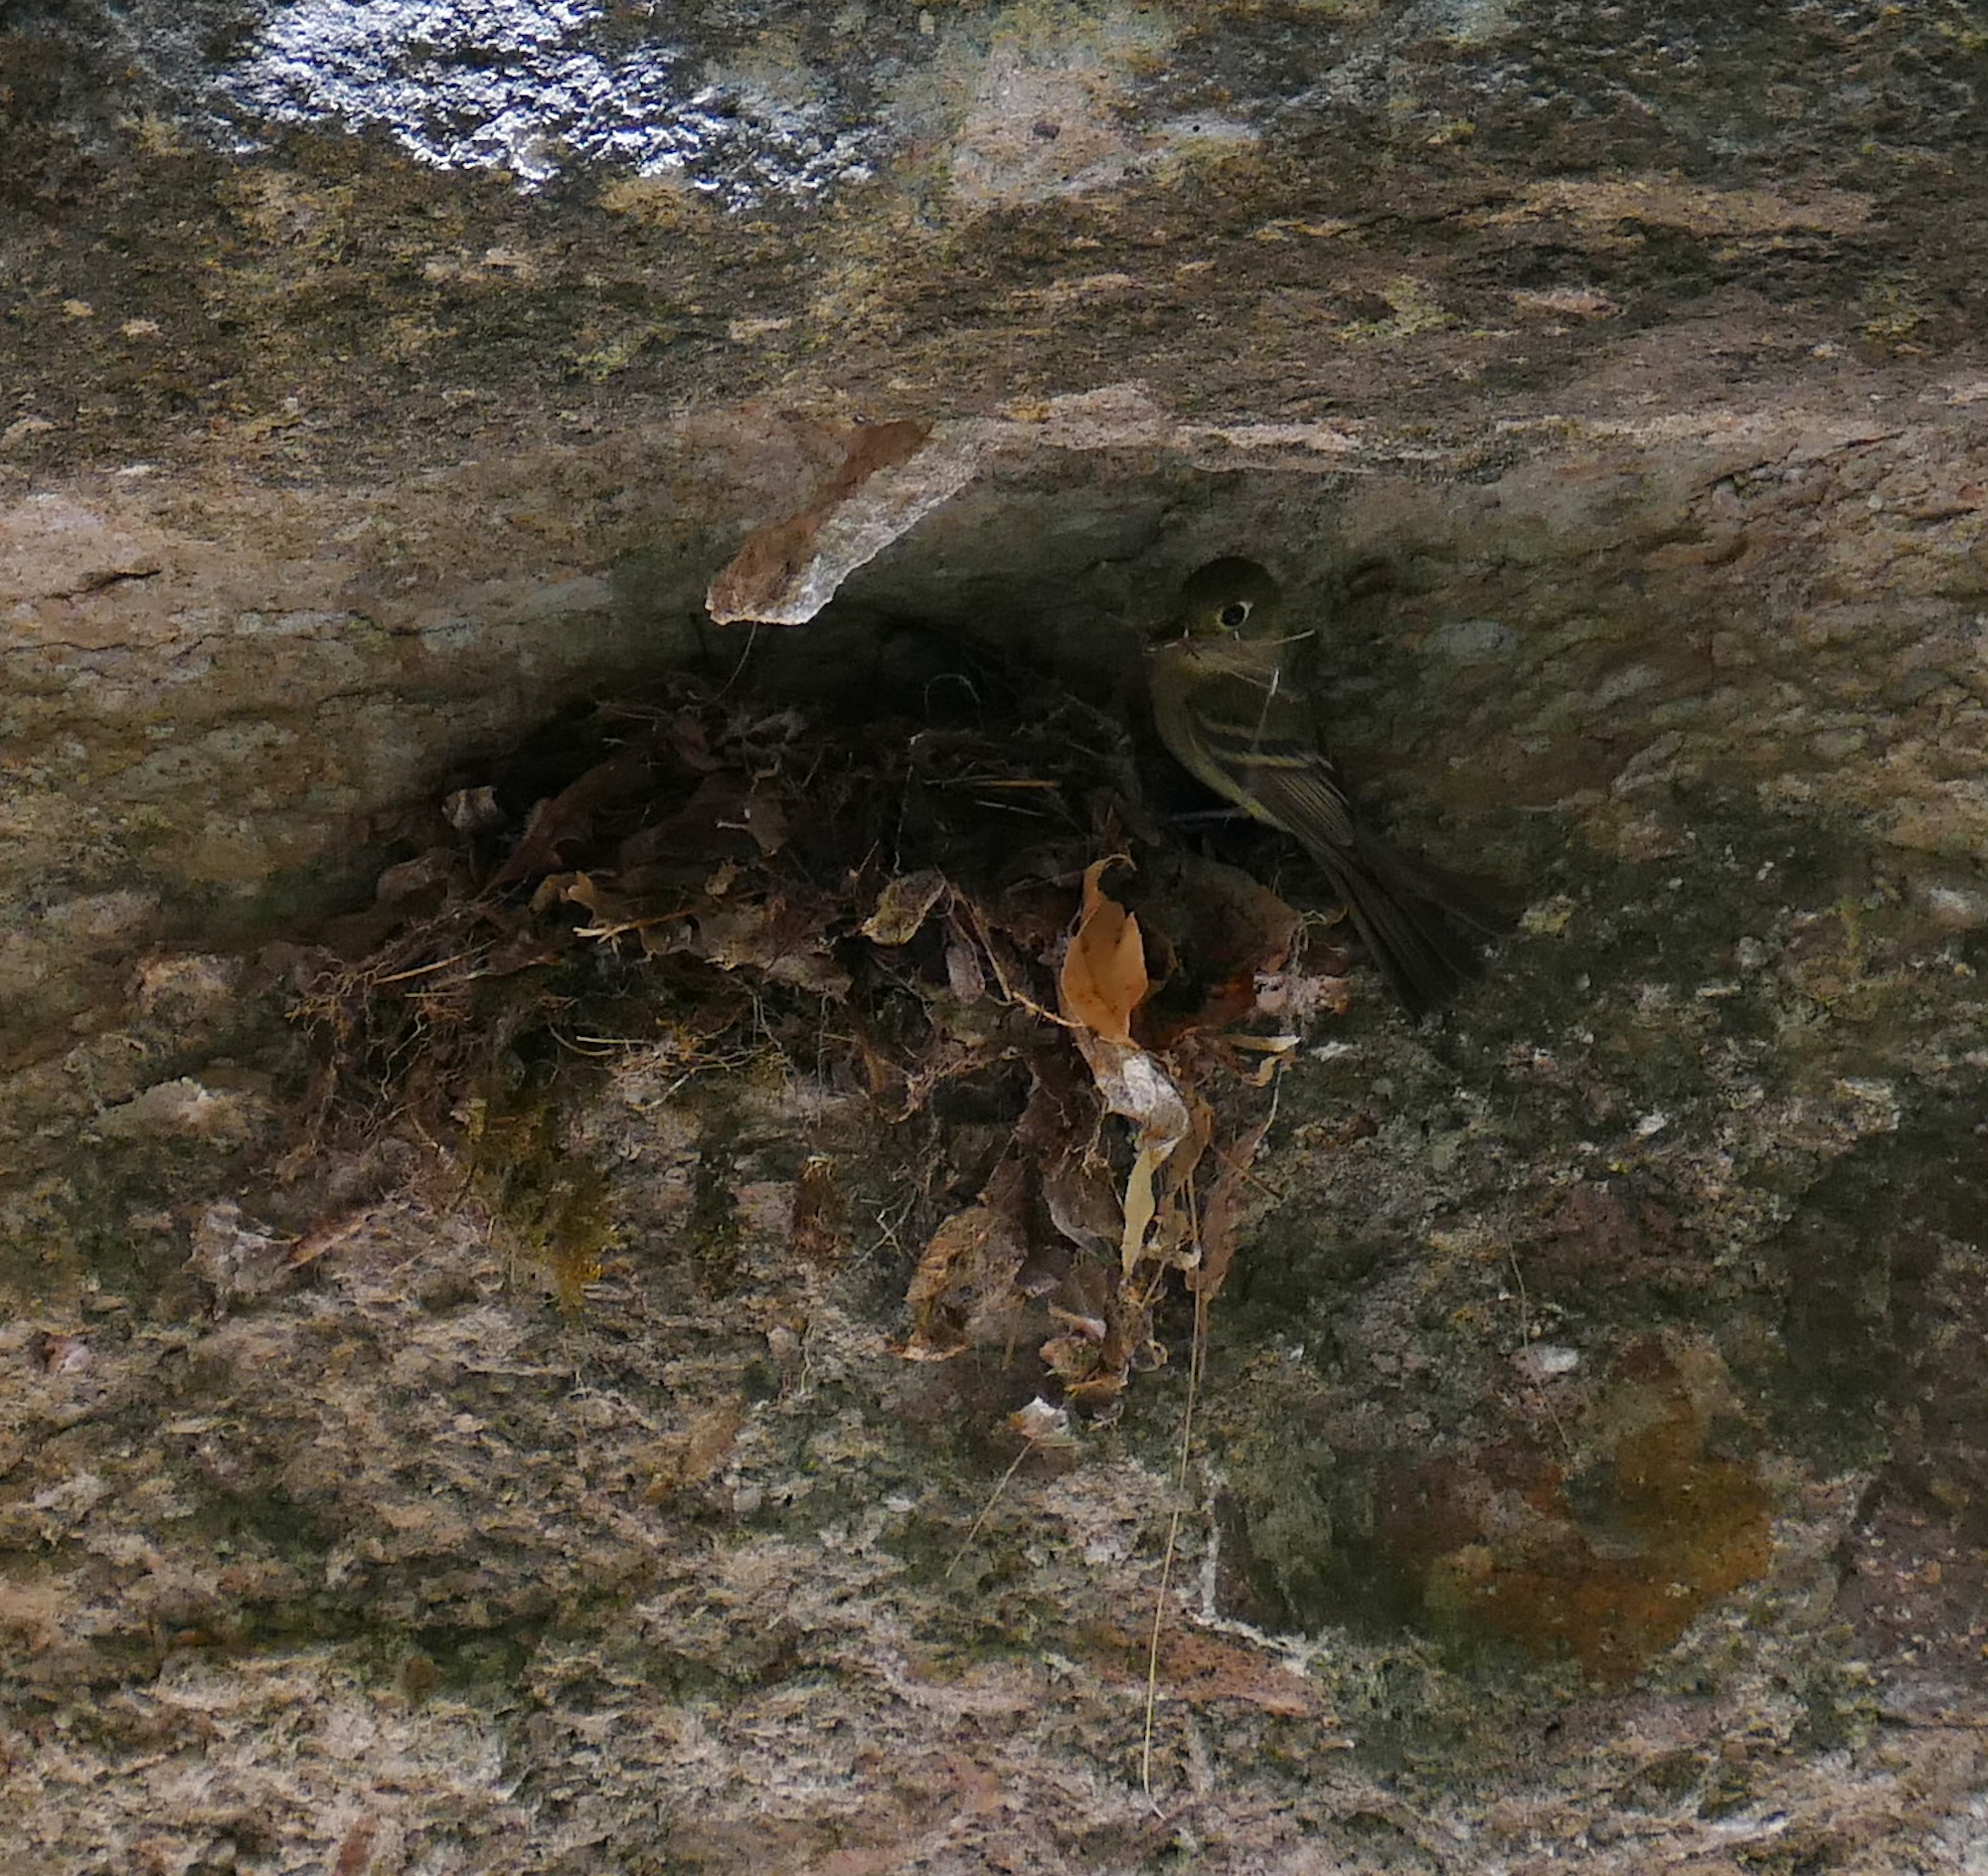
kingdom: Animalia
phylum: Chordata
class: Aves
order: Passeriformes
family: Tyrannidae
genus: Empidonax
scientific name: Empidonax difficilis
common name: Pacific-slope flycatcher
